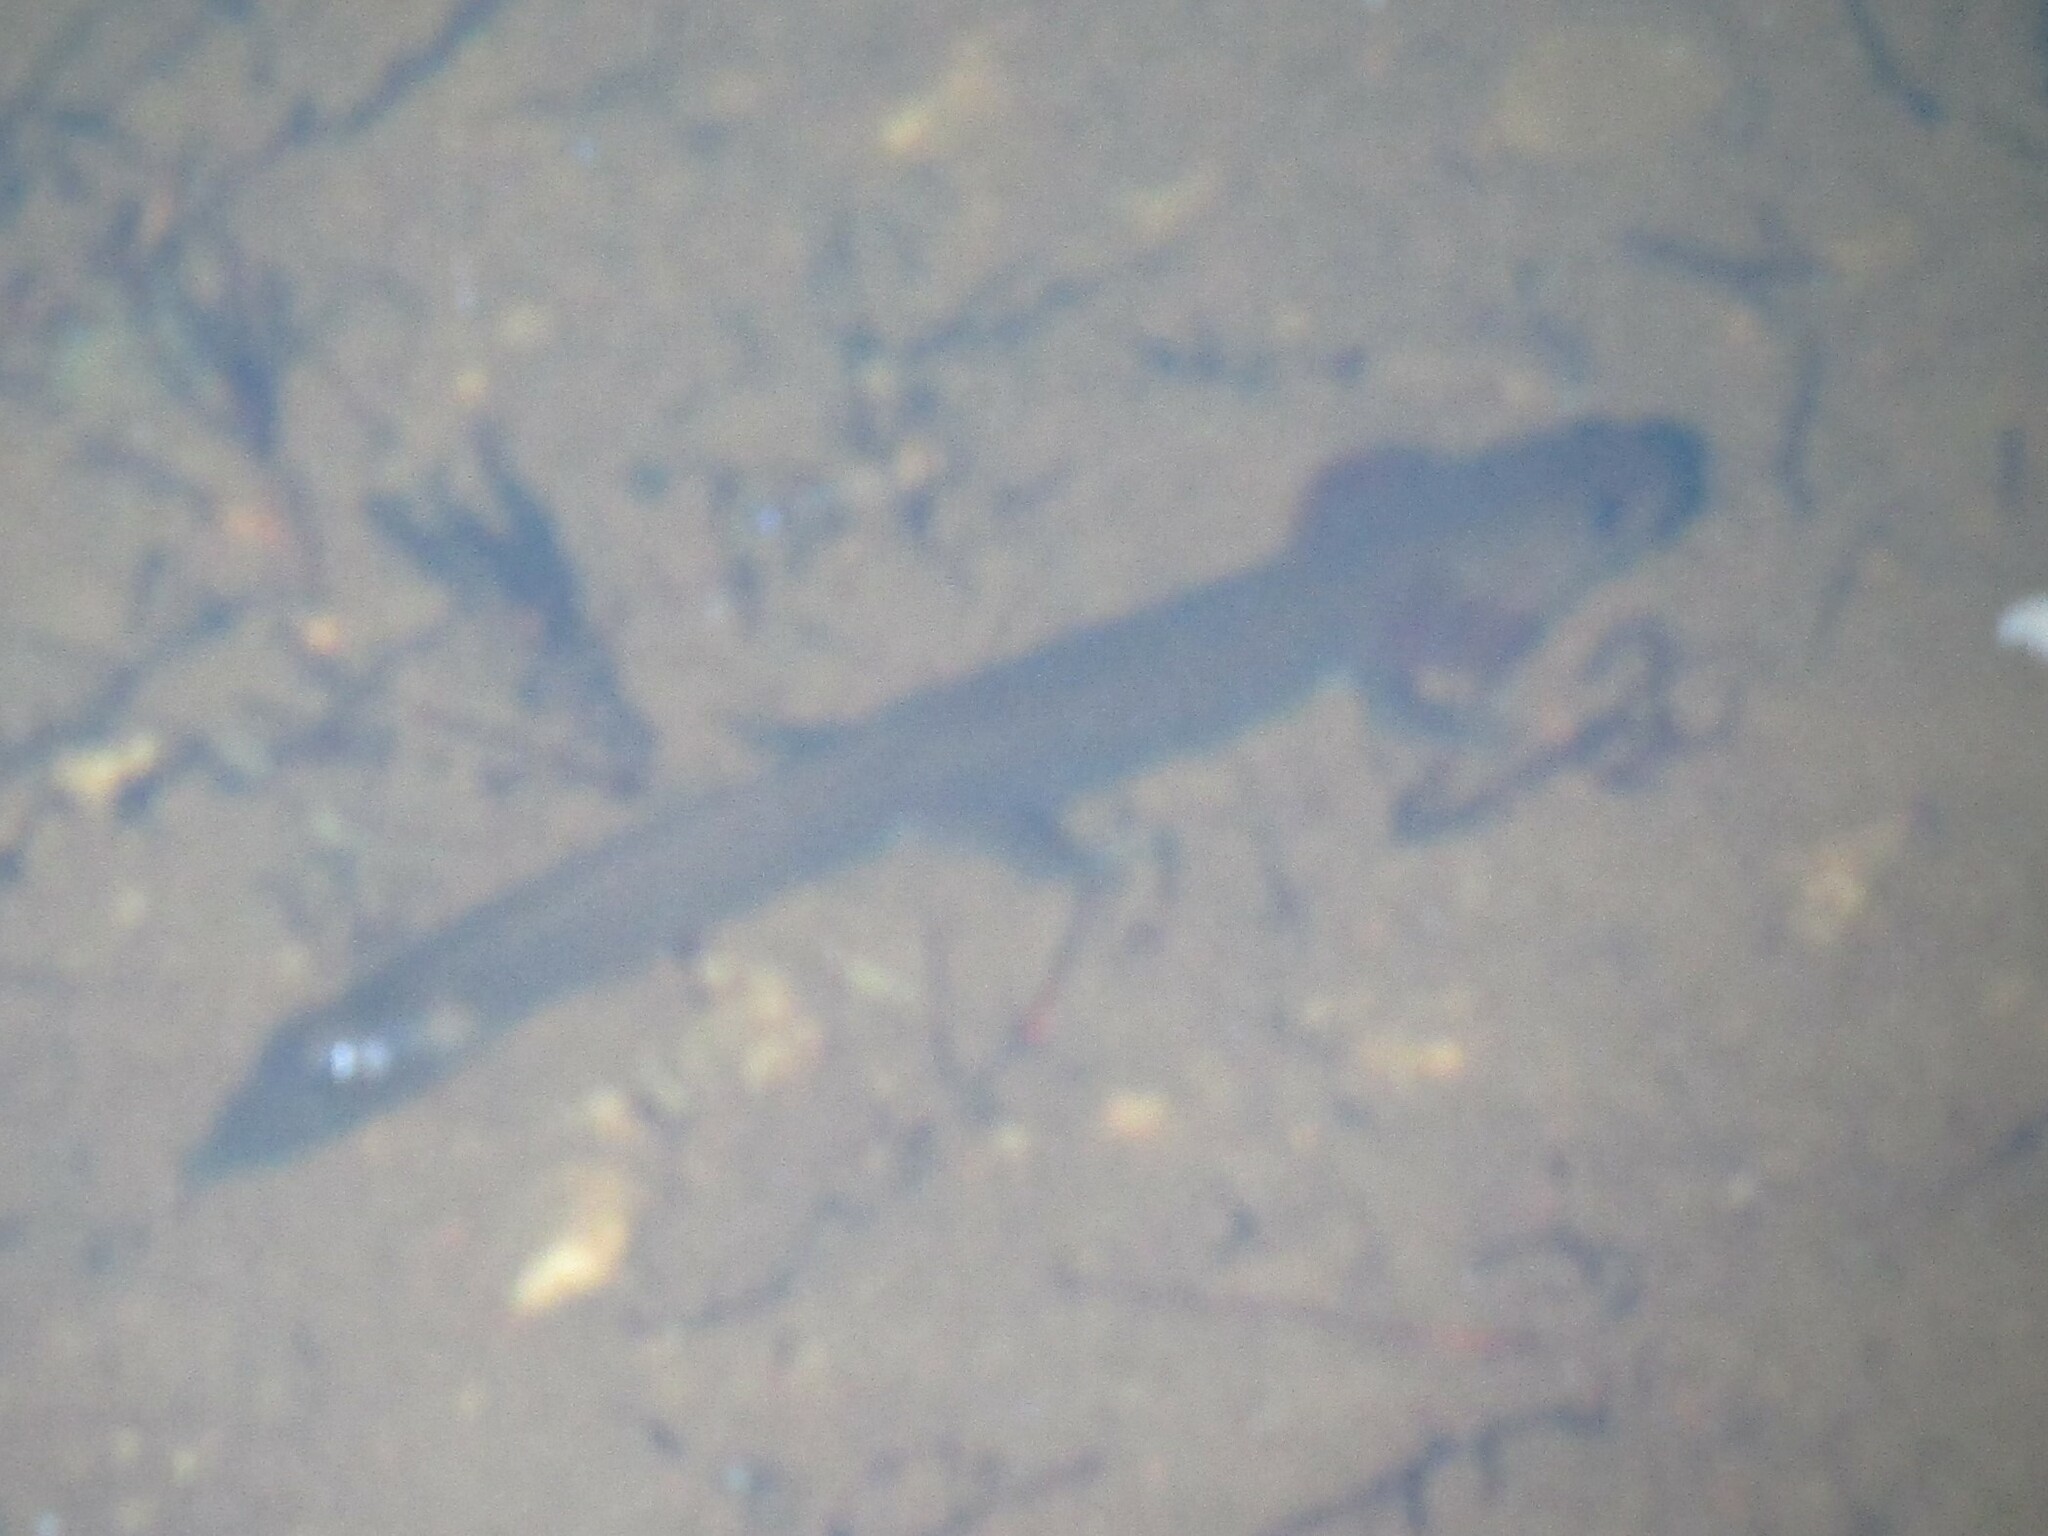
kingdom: Animalia
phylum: Chordata
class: Amphibia
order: Caudata
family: Ambystomatidae
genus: Dicamptodon
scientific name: Dicamptodon ensatus
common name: California giant salamander
